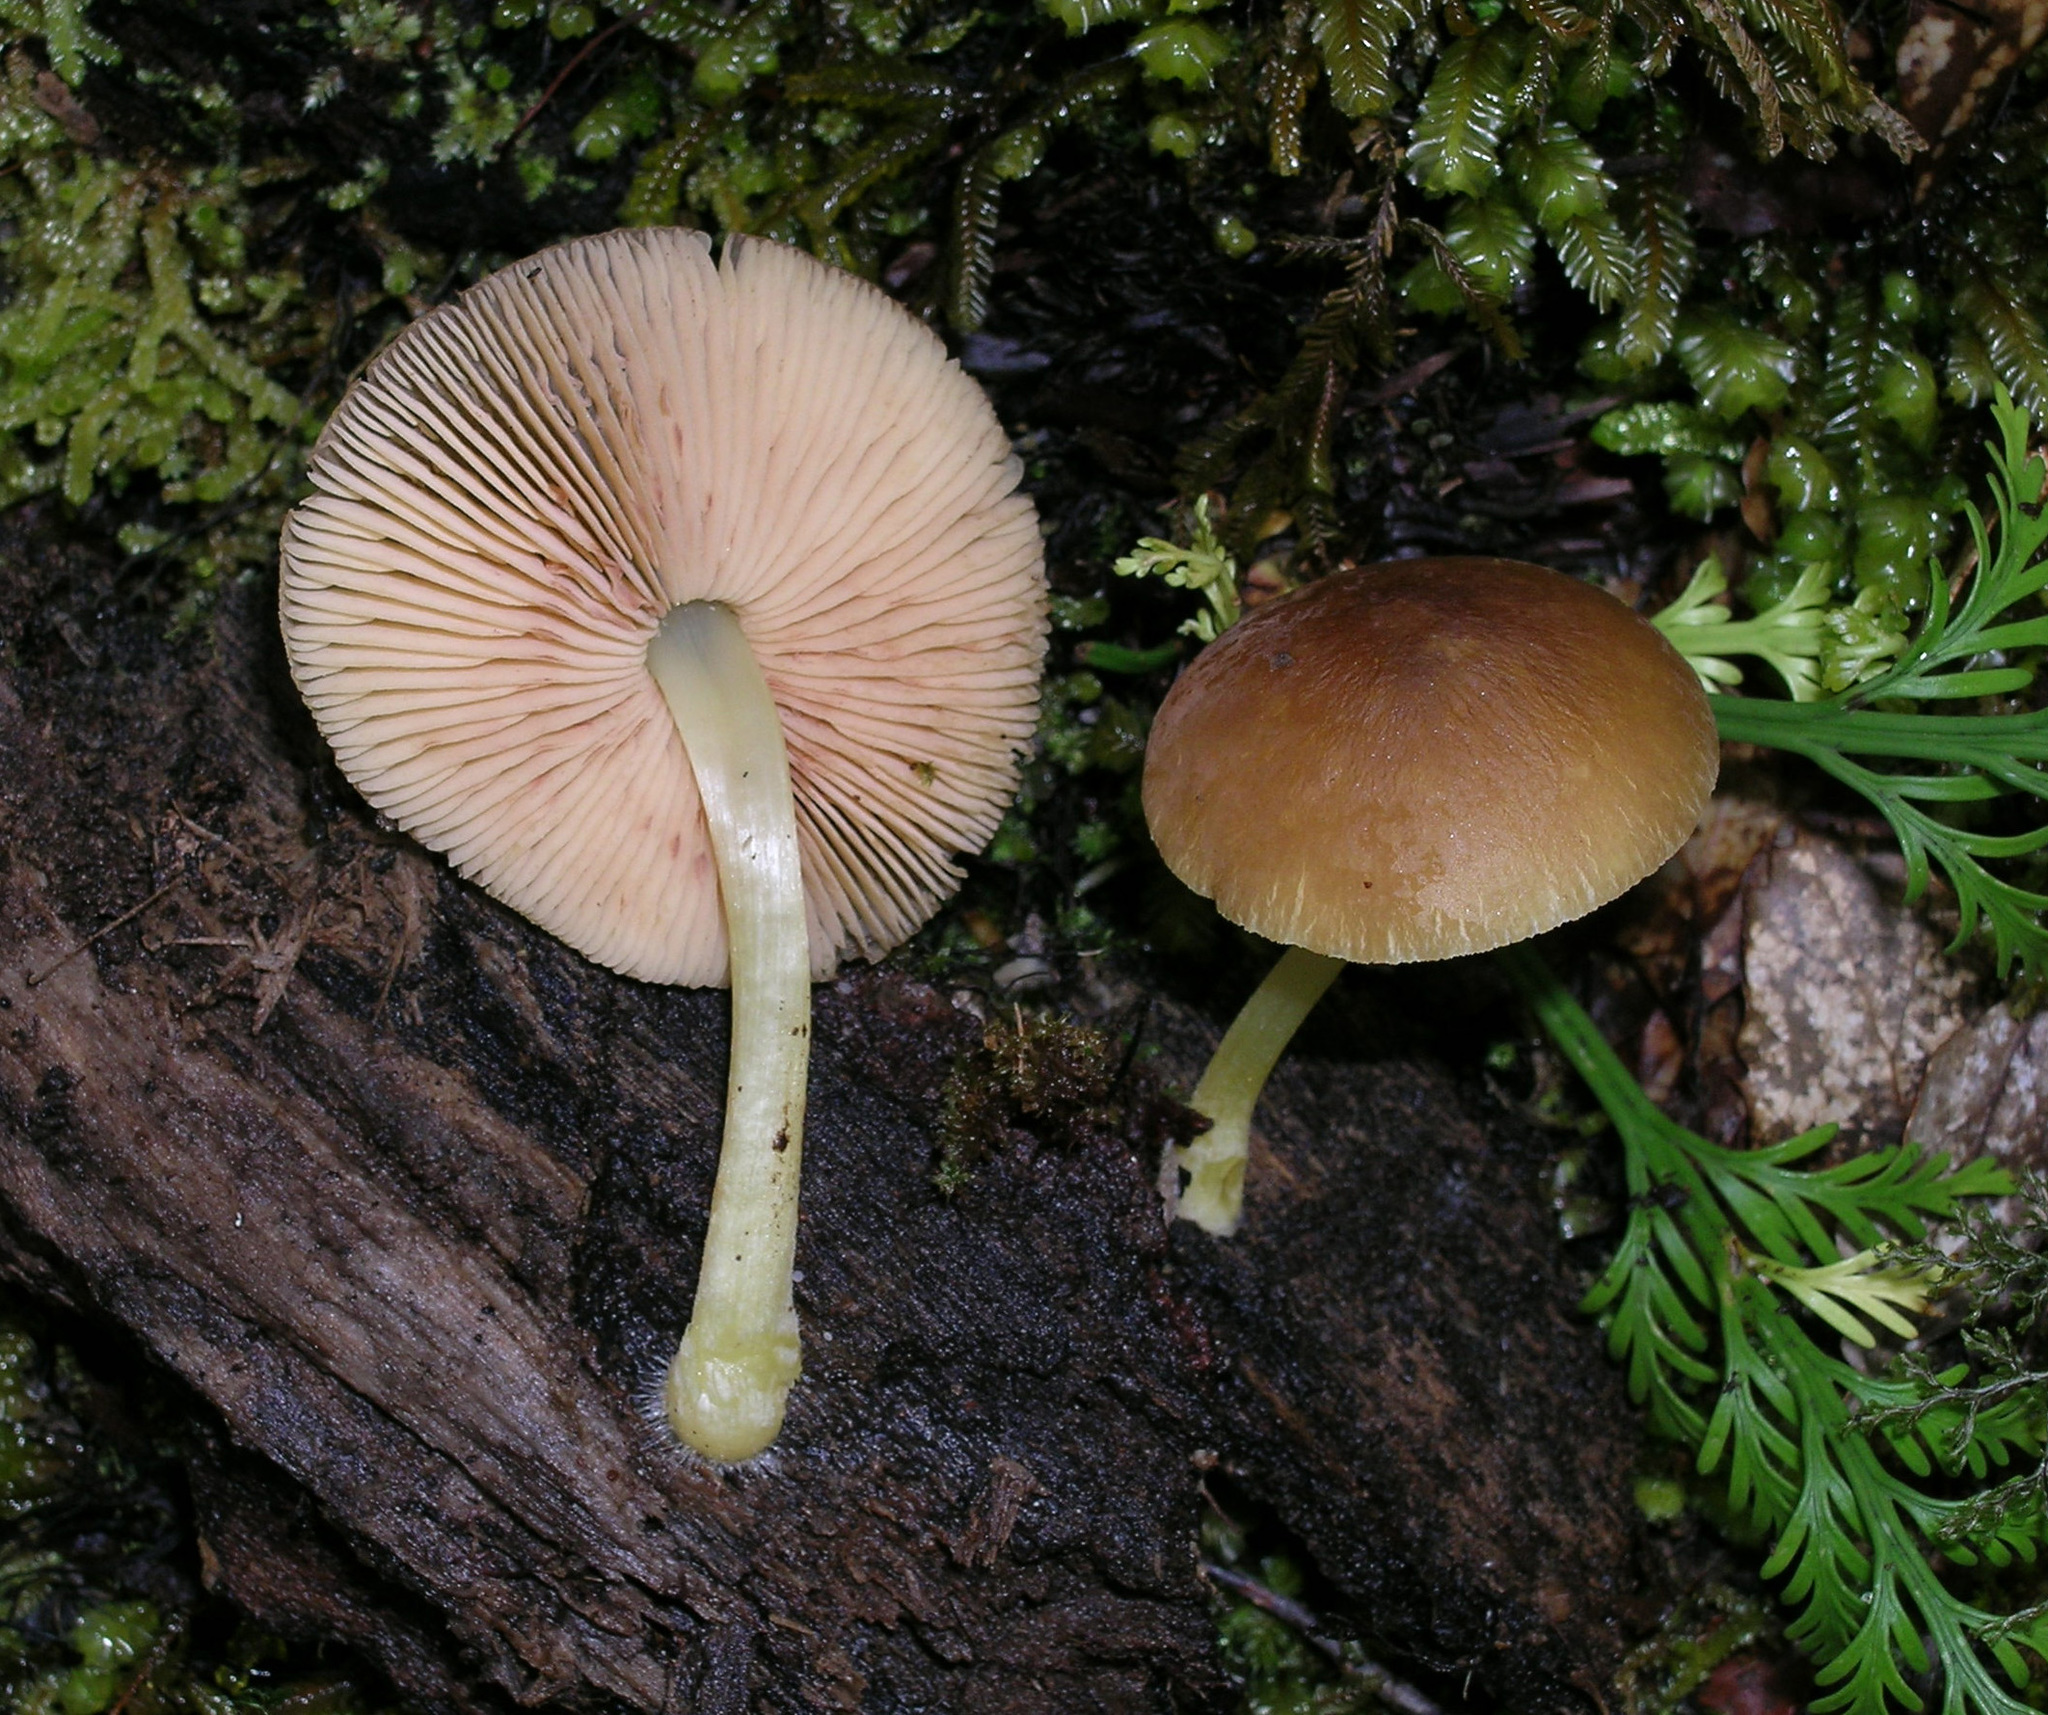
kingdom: Fungi
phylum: Basidiomycota
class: Agaricomycetes
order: Agaricales
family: Pluteaceae
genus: Pluteus
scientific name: Pluteus pauperculus
